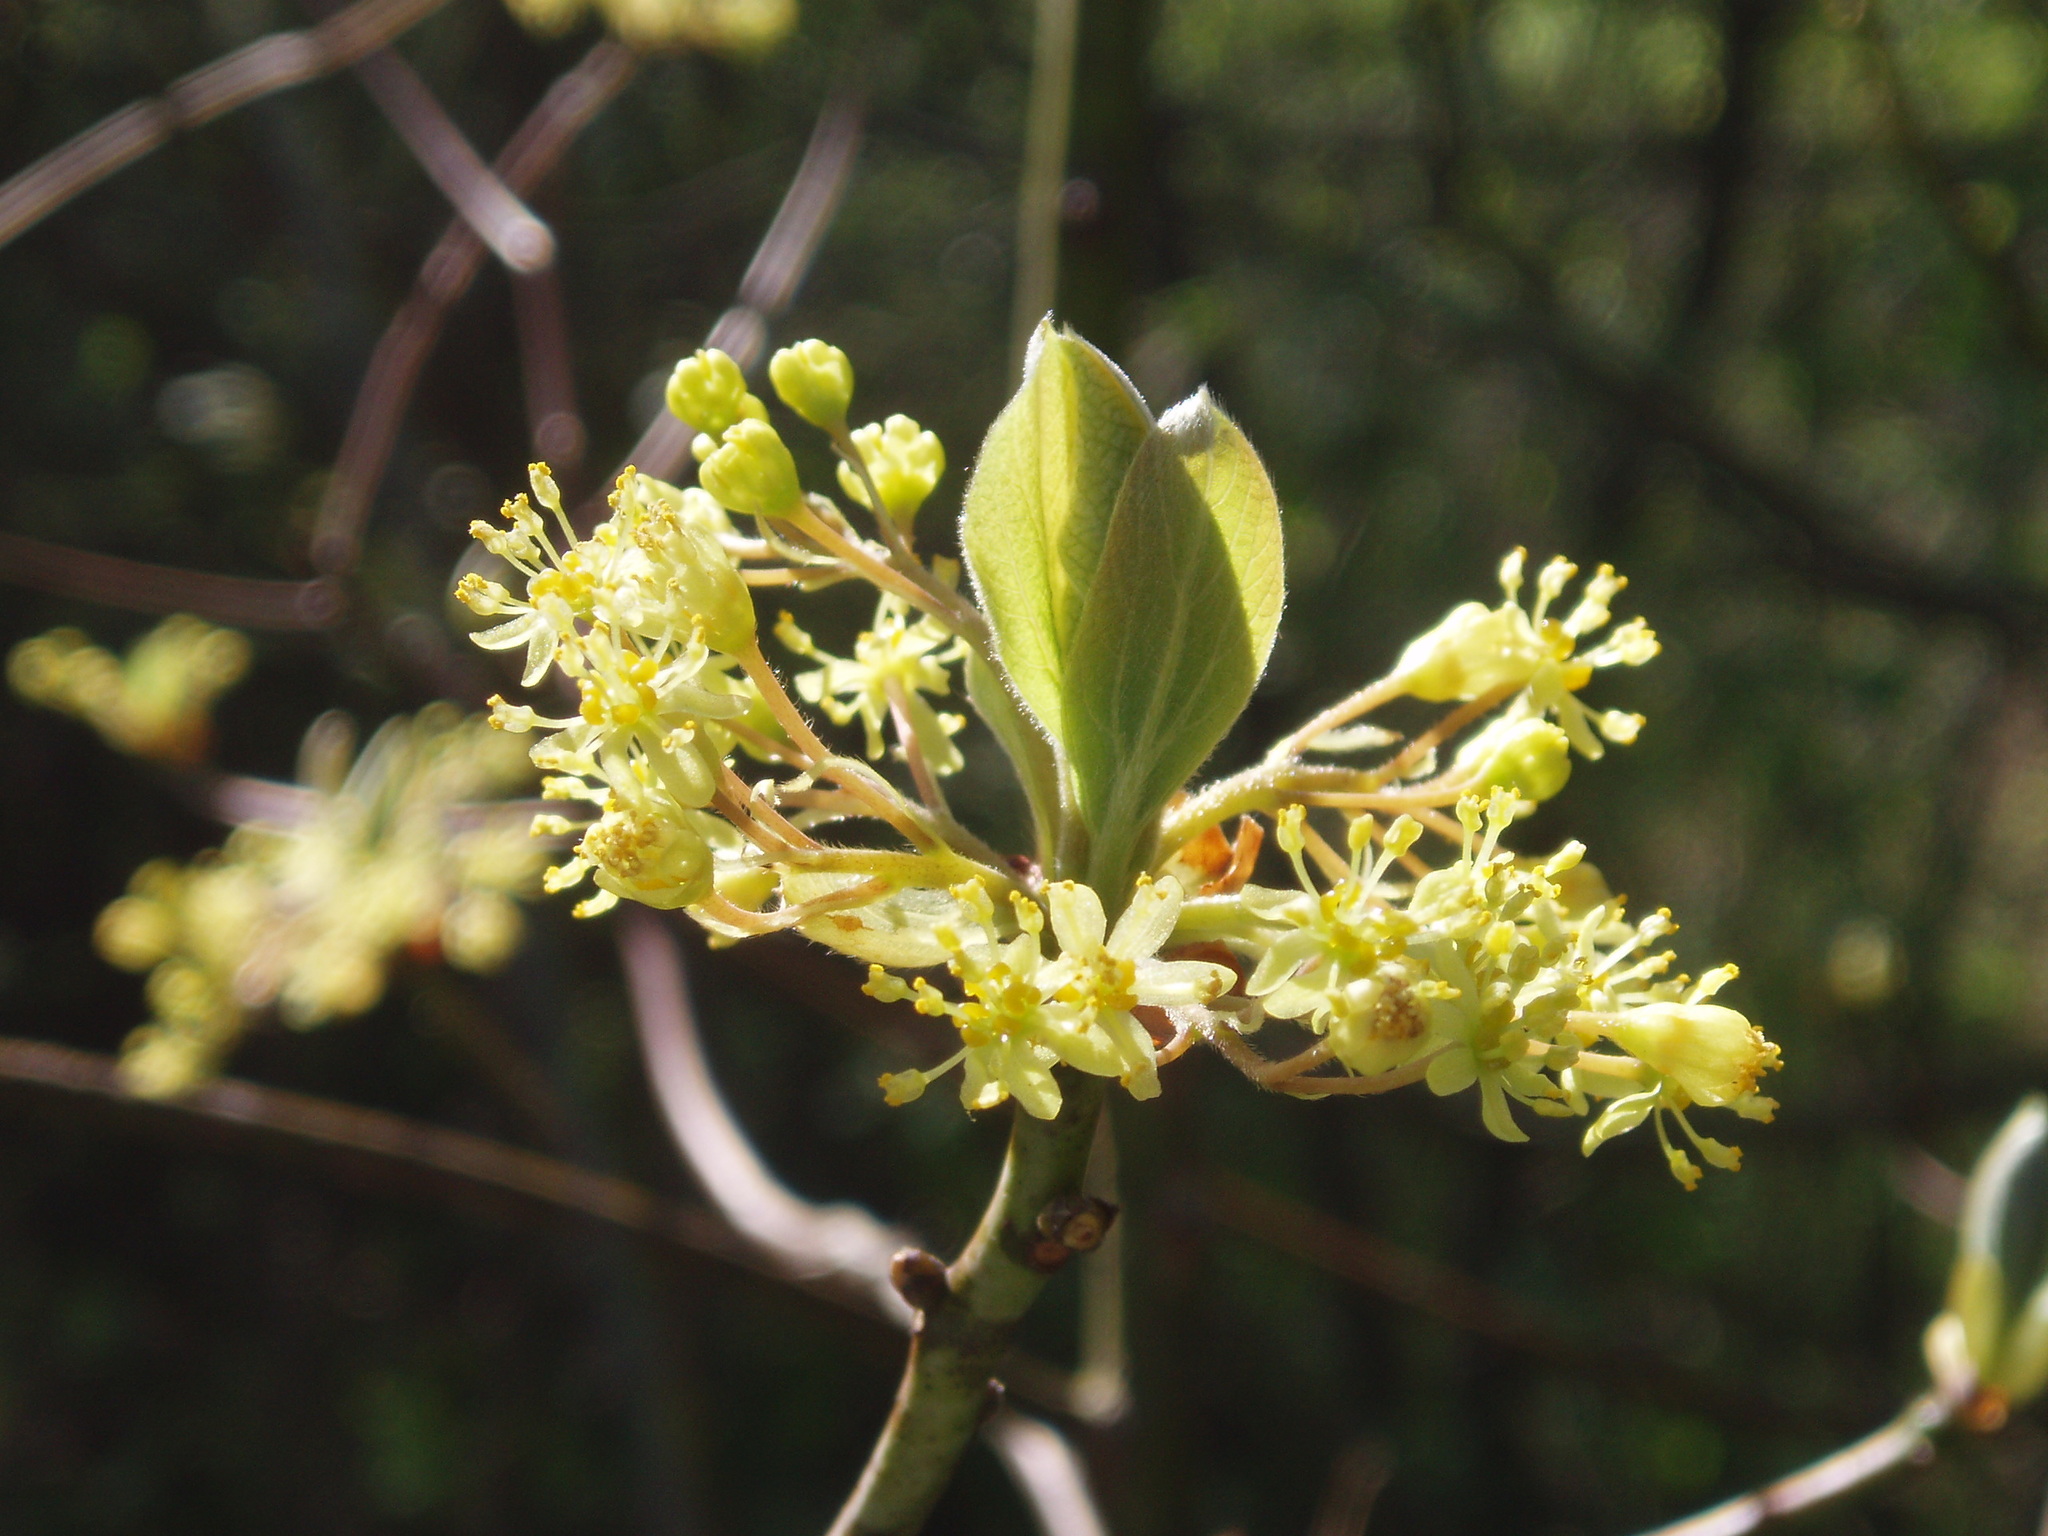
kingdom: Plantae
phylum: Tracheophyta
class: Magnoliopsida
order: Laurales
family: Lauraceae
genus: Sassafras
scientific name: Sassafras albidum
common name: Sassafras
